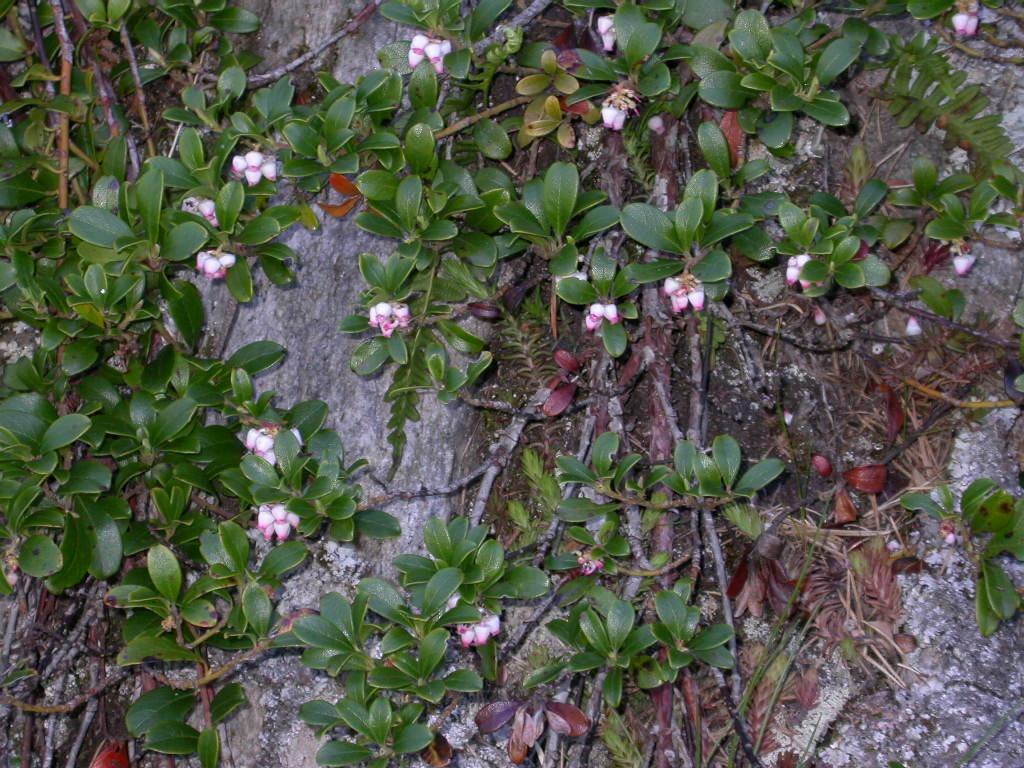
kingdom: Plantae
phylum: Tracheophyta
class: Magnoliopsida
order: Ericales
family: Ericaceae
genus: Arctostaphylos
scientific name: Arctostaphylos uva-ursi
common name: Bearberry
